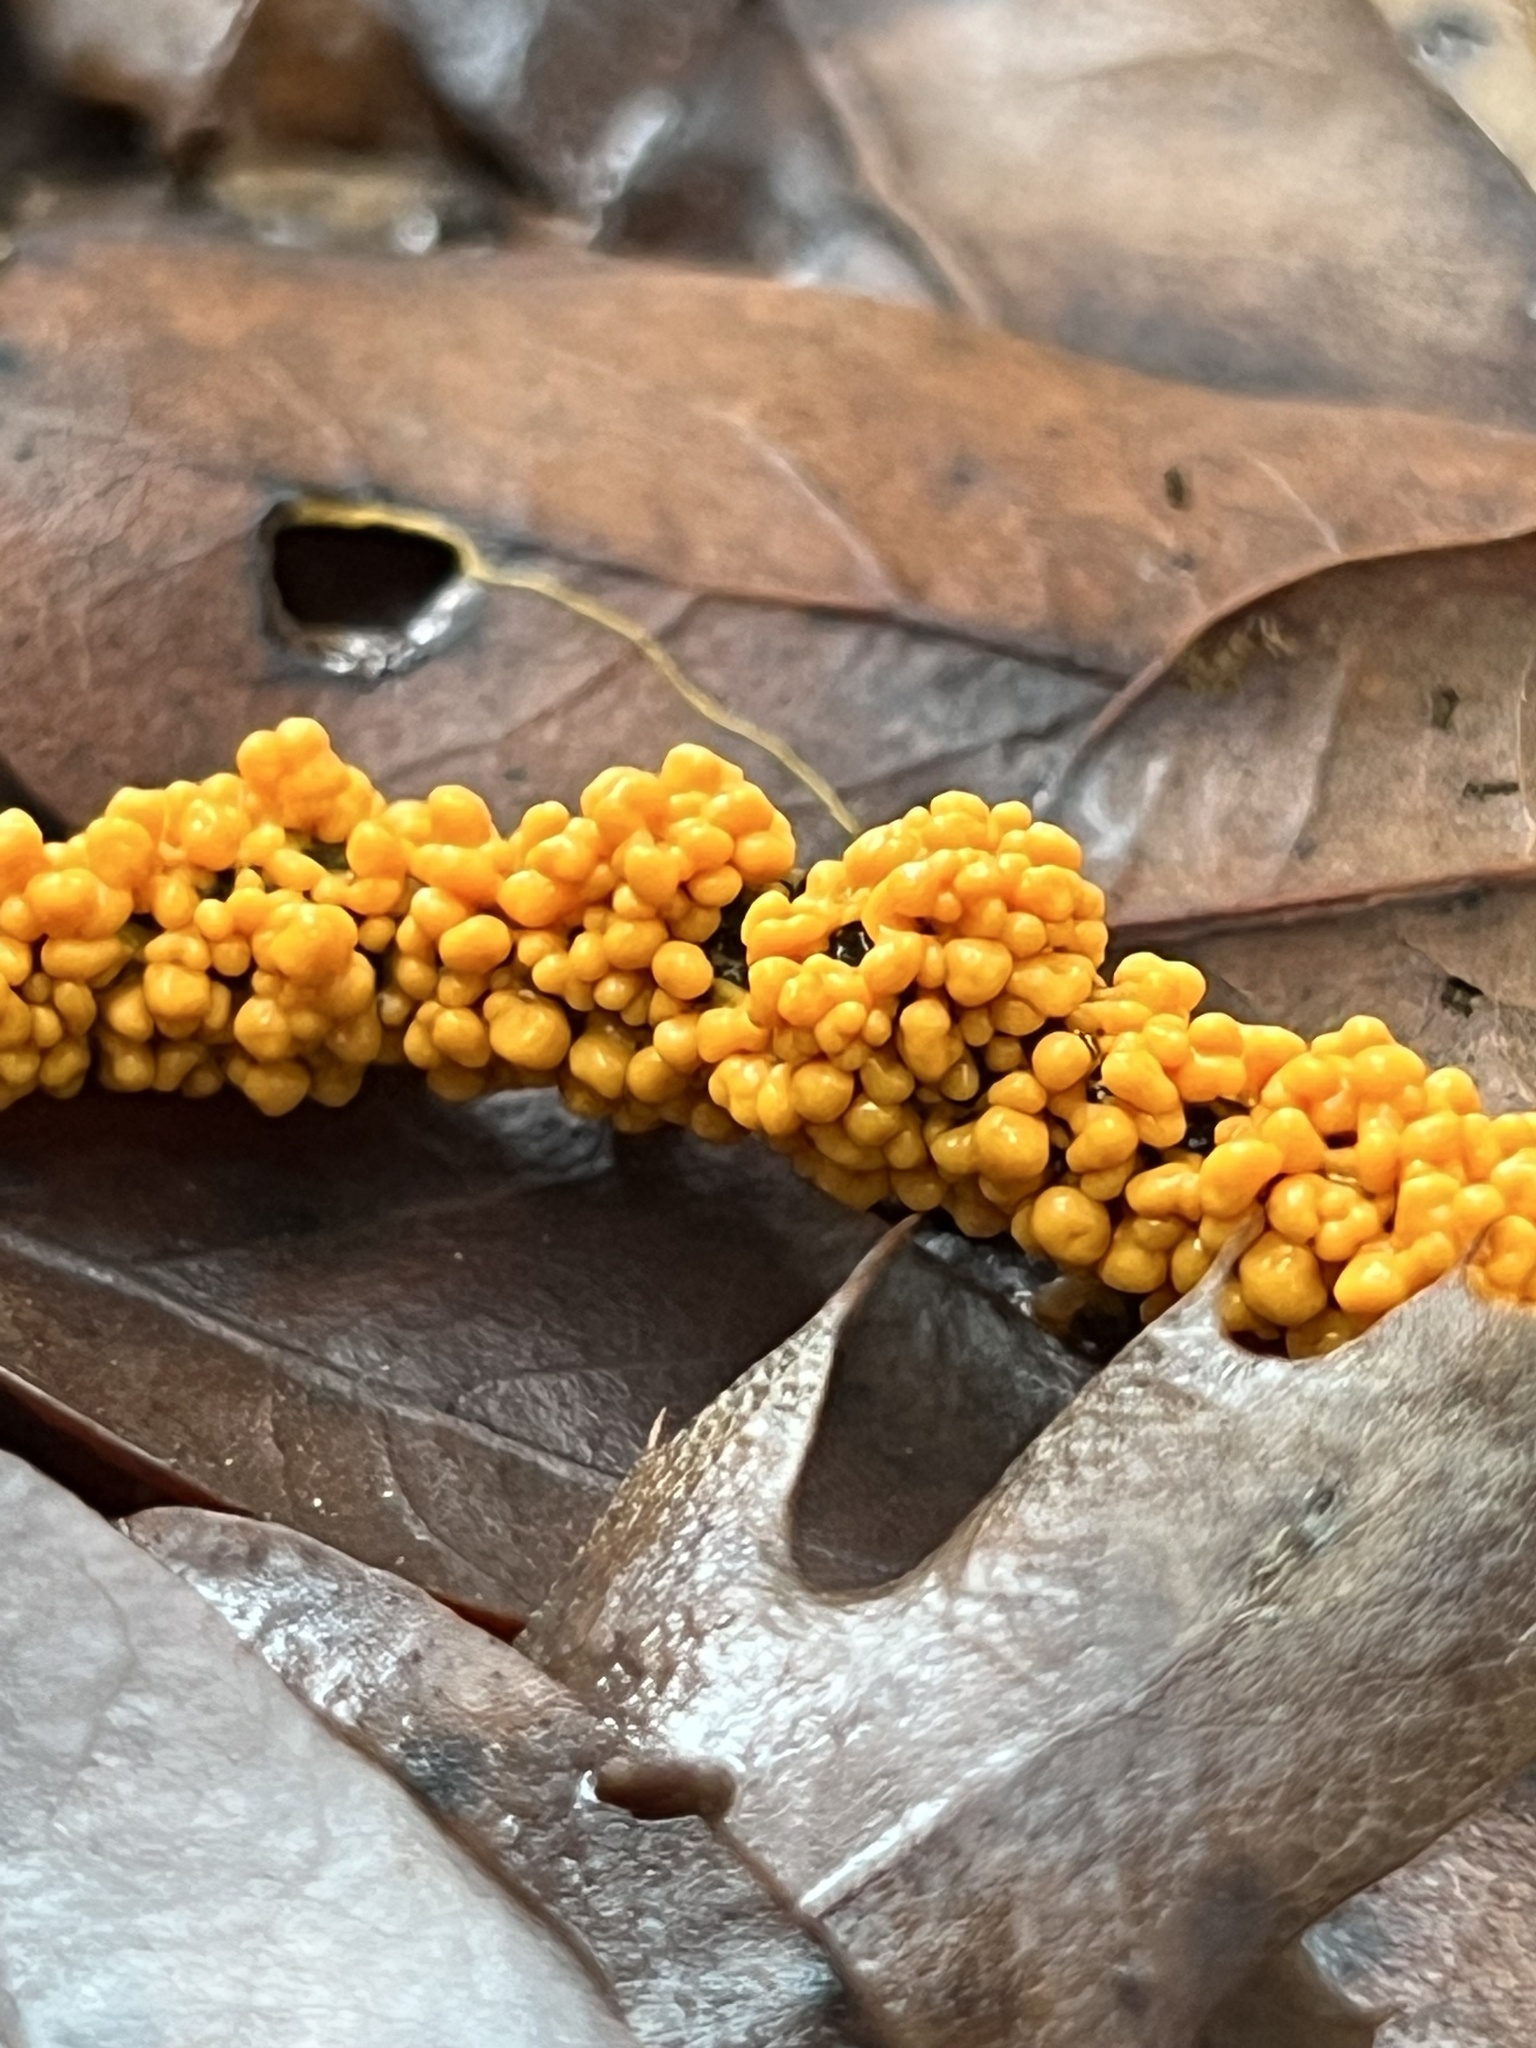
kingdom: Protozoa
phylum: Mycetozoa
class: Myxomycetes
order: Physarales
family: Physaraceae
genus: Leocarpus
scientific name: Leocarpus fragilis
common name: Insect-egg slime
